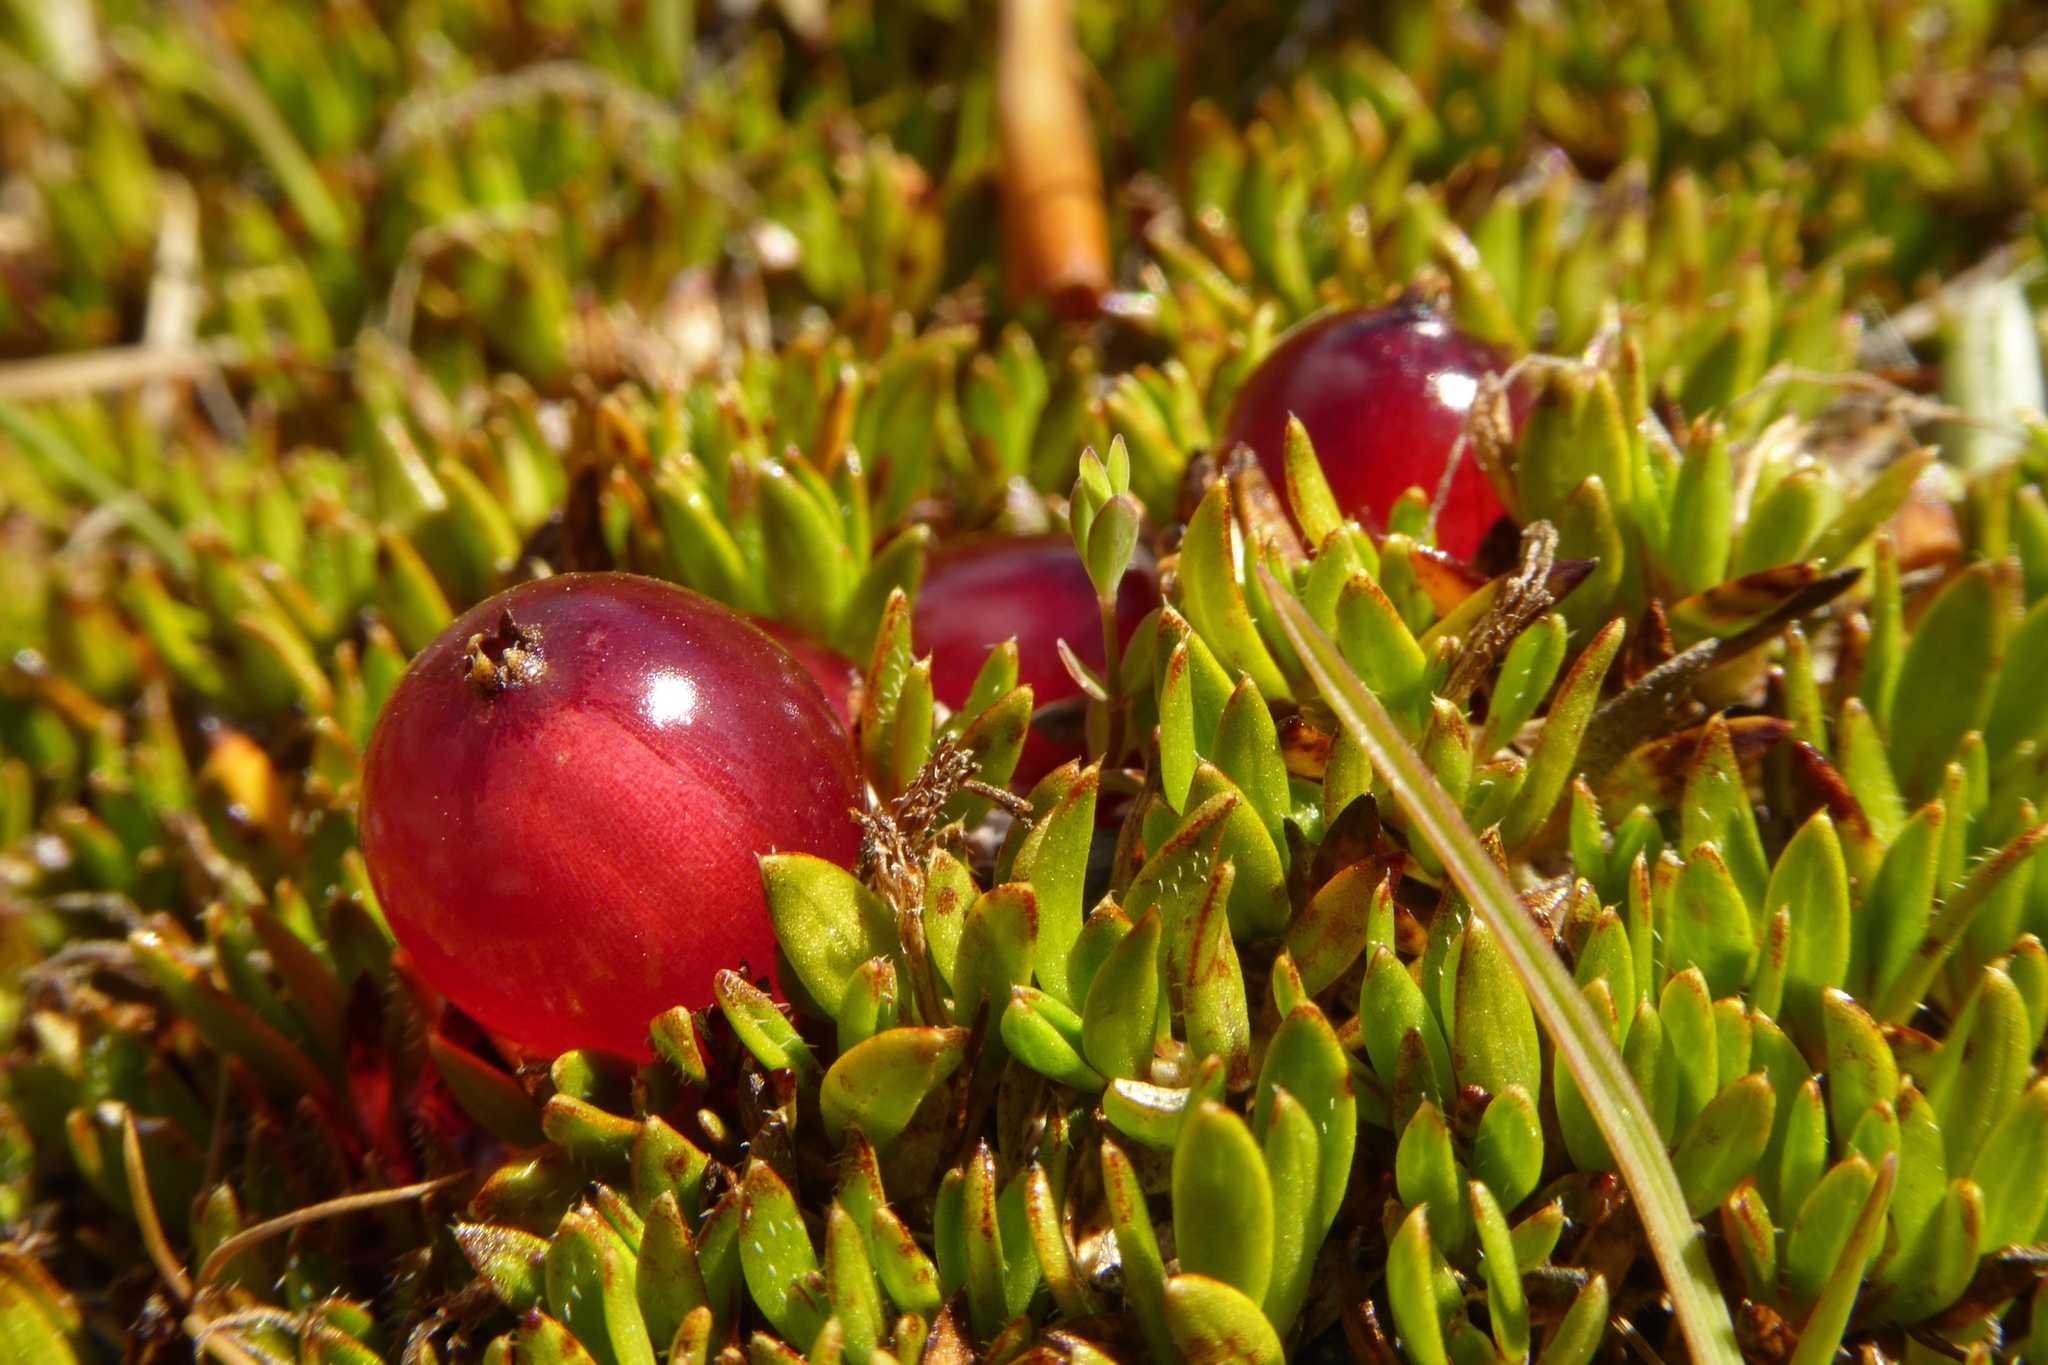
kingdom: Plantae
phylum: Tracheophyta
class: Magnoliopsida
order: Gentianales
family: Rubiaceae
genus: Coprosma
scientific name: Coprosma atropurpurea
